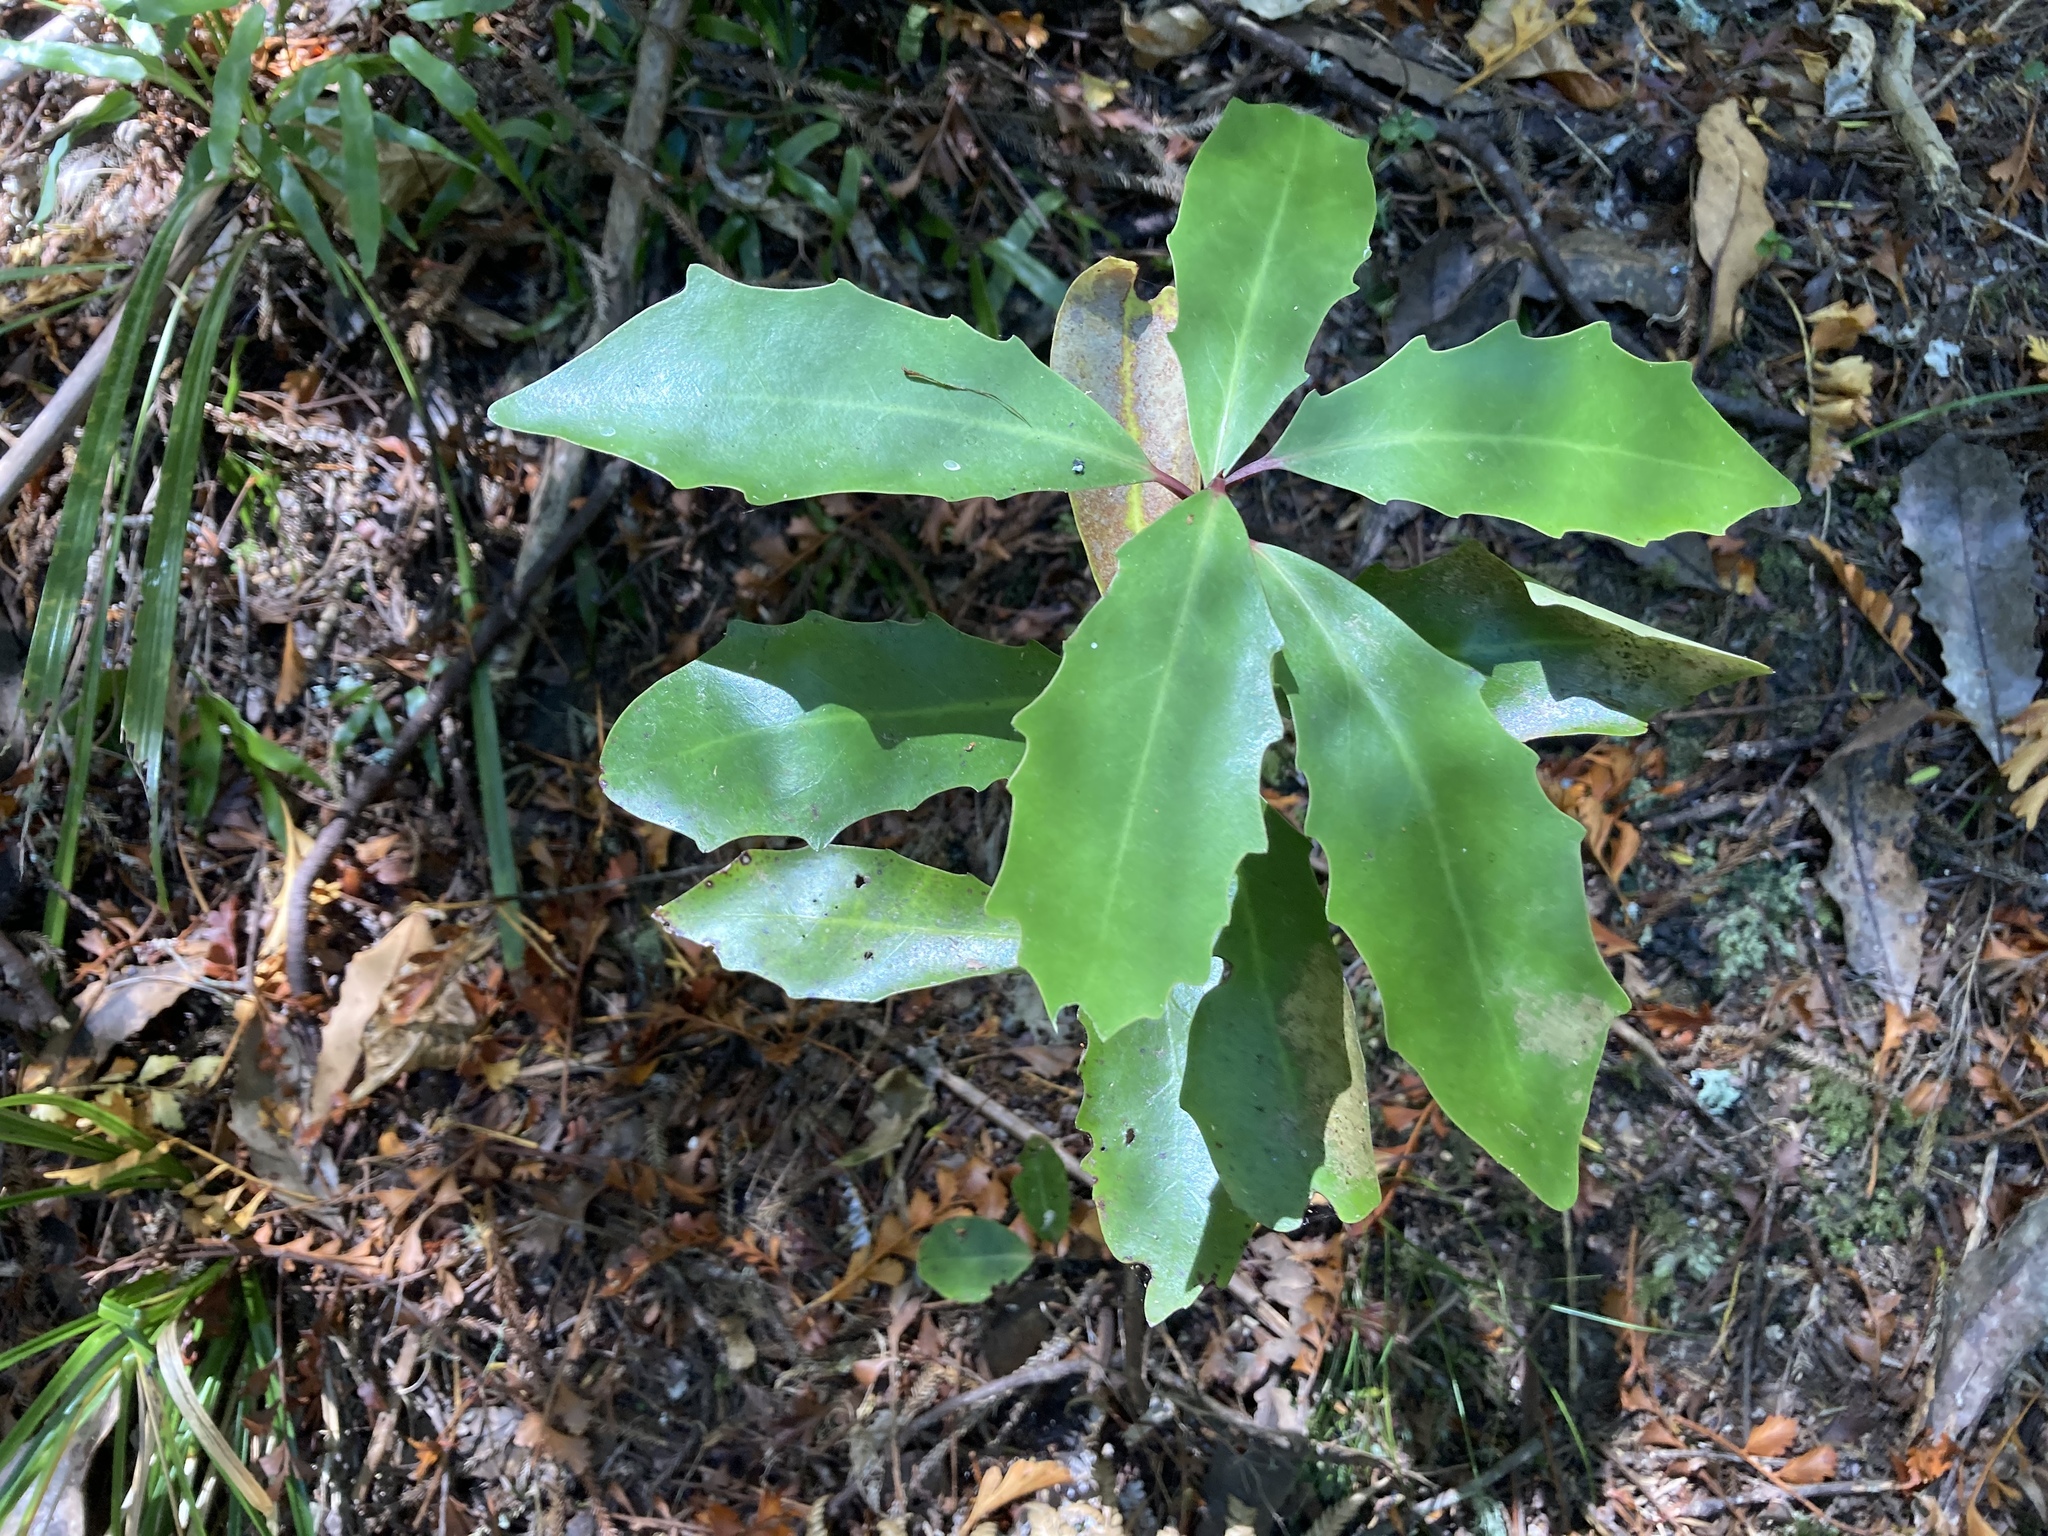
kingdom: Plantae
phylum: Tracheophyta
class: Magnoliopsida
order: Asterales
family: Alseuosmiaceae
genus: Alseuosmia
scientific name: Alseuosmia quercifolia
